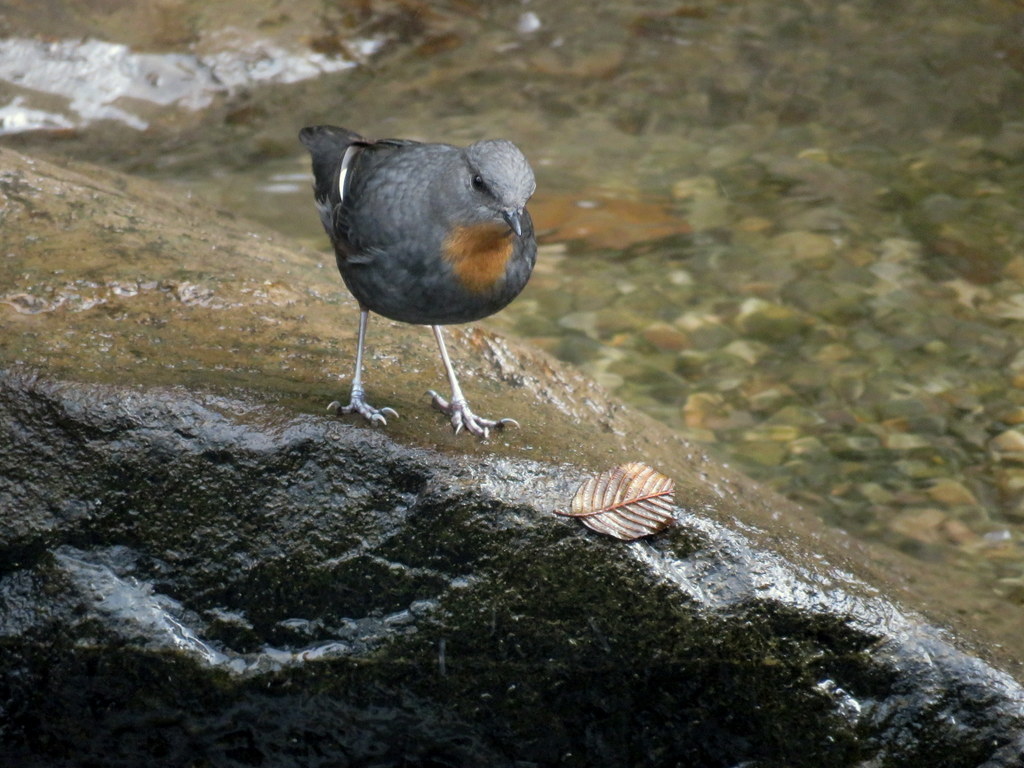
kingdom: Animalia
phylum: Chordata
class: Aves
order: Passeriformes
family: Cinclidae
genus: Cinclus
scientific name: Cinclus schulzii
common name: Rufous-throated dipper
